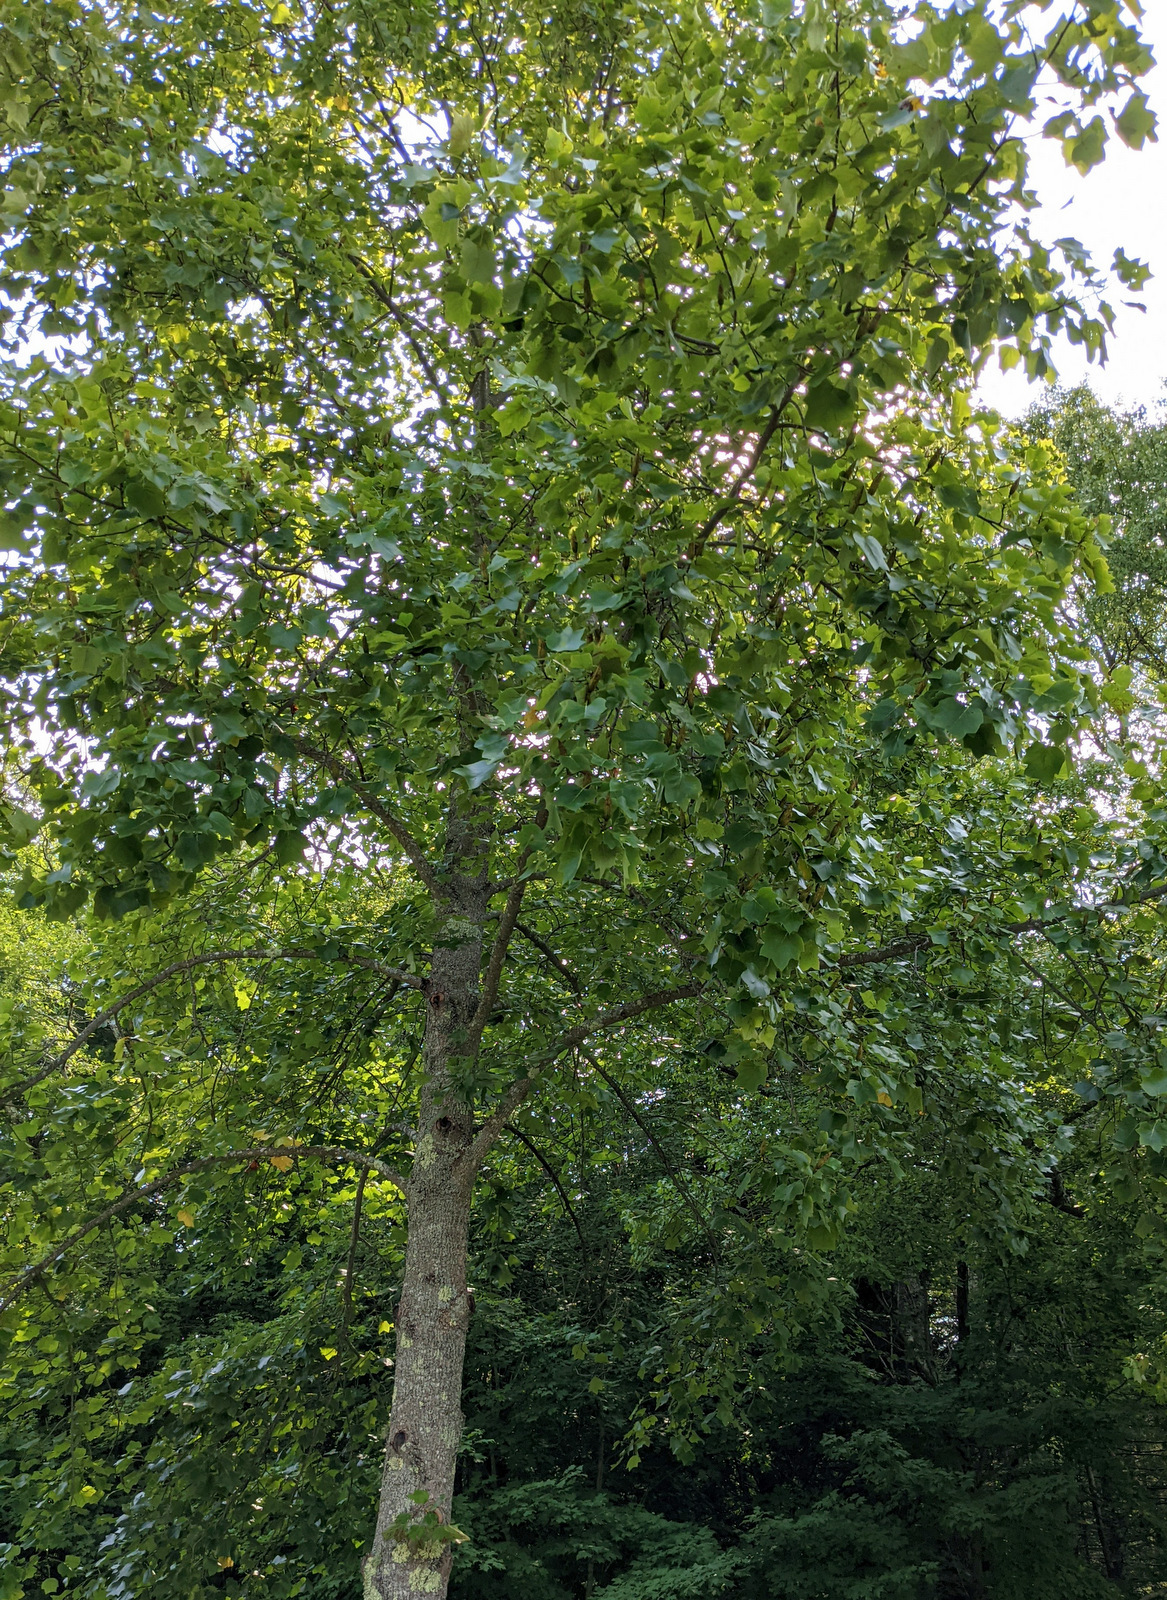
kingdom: Plantae
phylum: Tracheophyta
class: Magnoliopsida
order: Magnoliales
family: Magnoliaceae
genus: Liriodendron
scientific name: Liriodendron tulipifera
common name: Tulip tree
